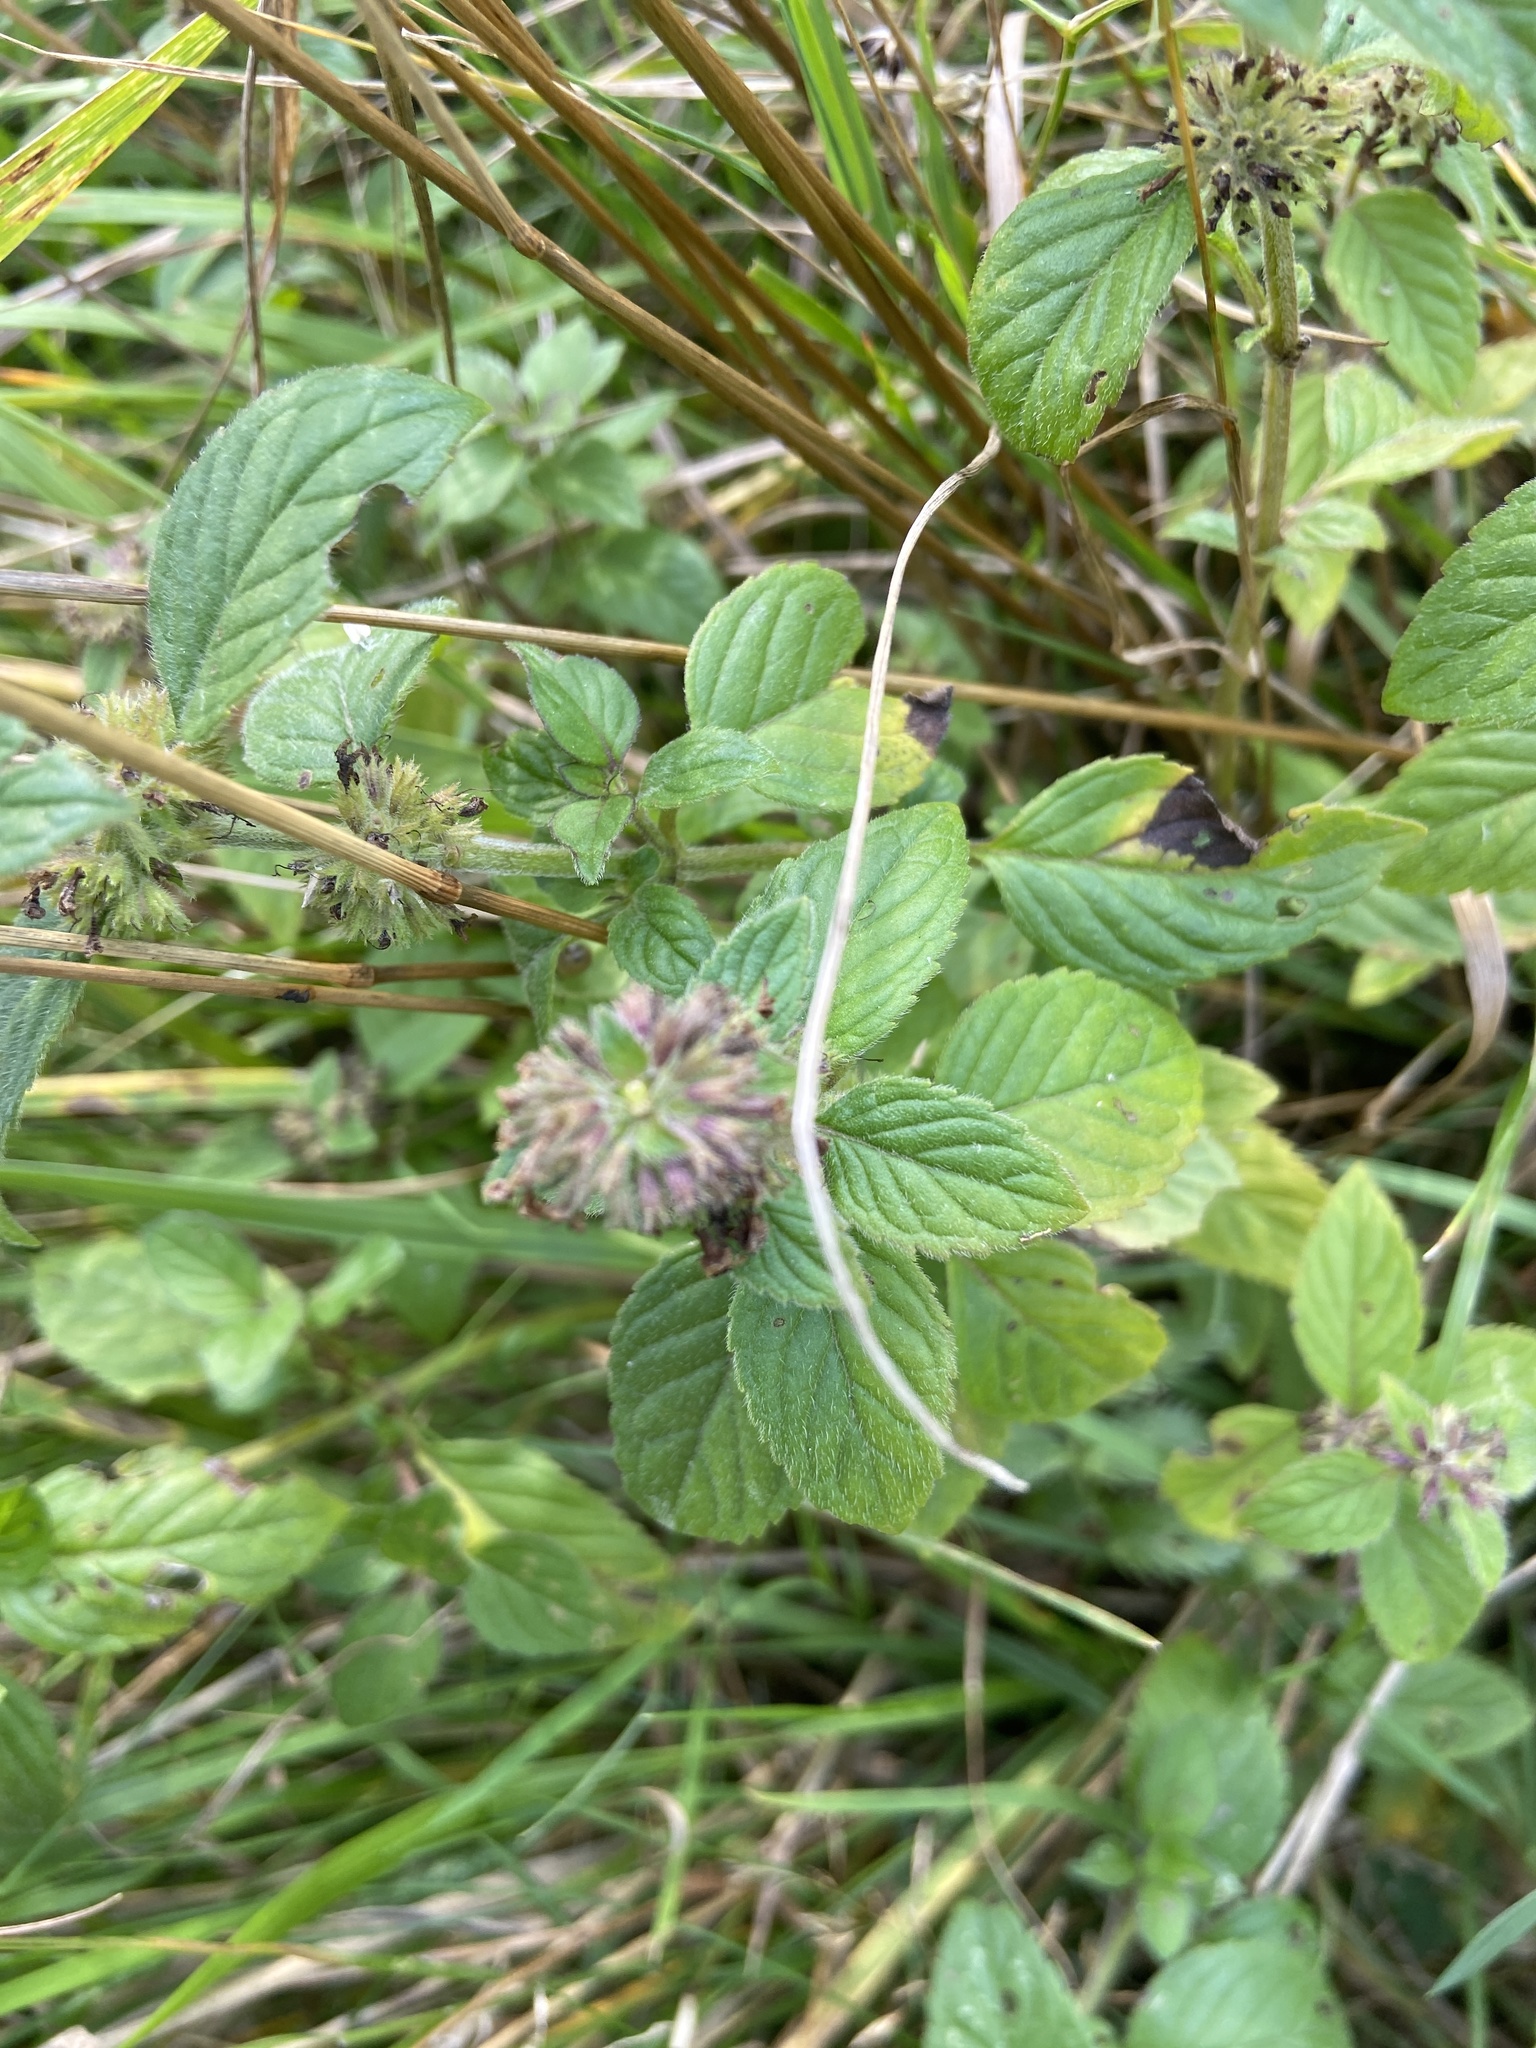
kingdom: Animalia
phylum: Arthropoda
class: Insecta
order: Coleoptera
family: Chrysomelidae
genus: Galeruca
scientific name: Galeruca tanaceti
